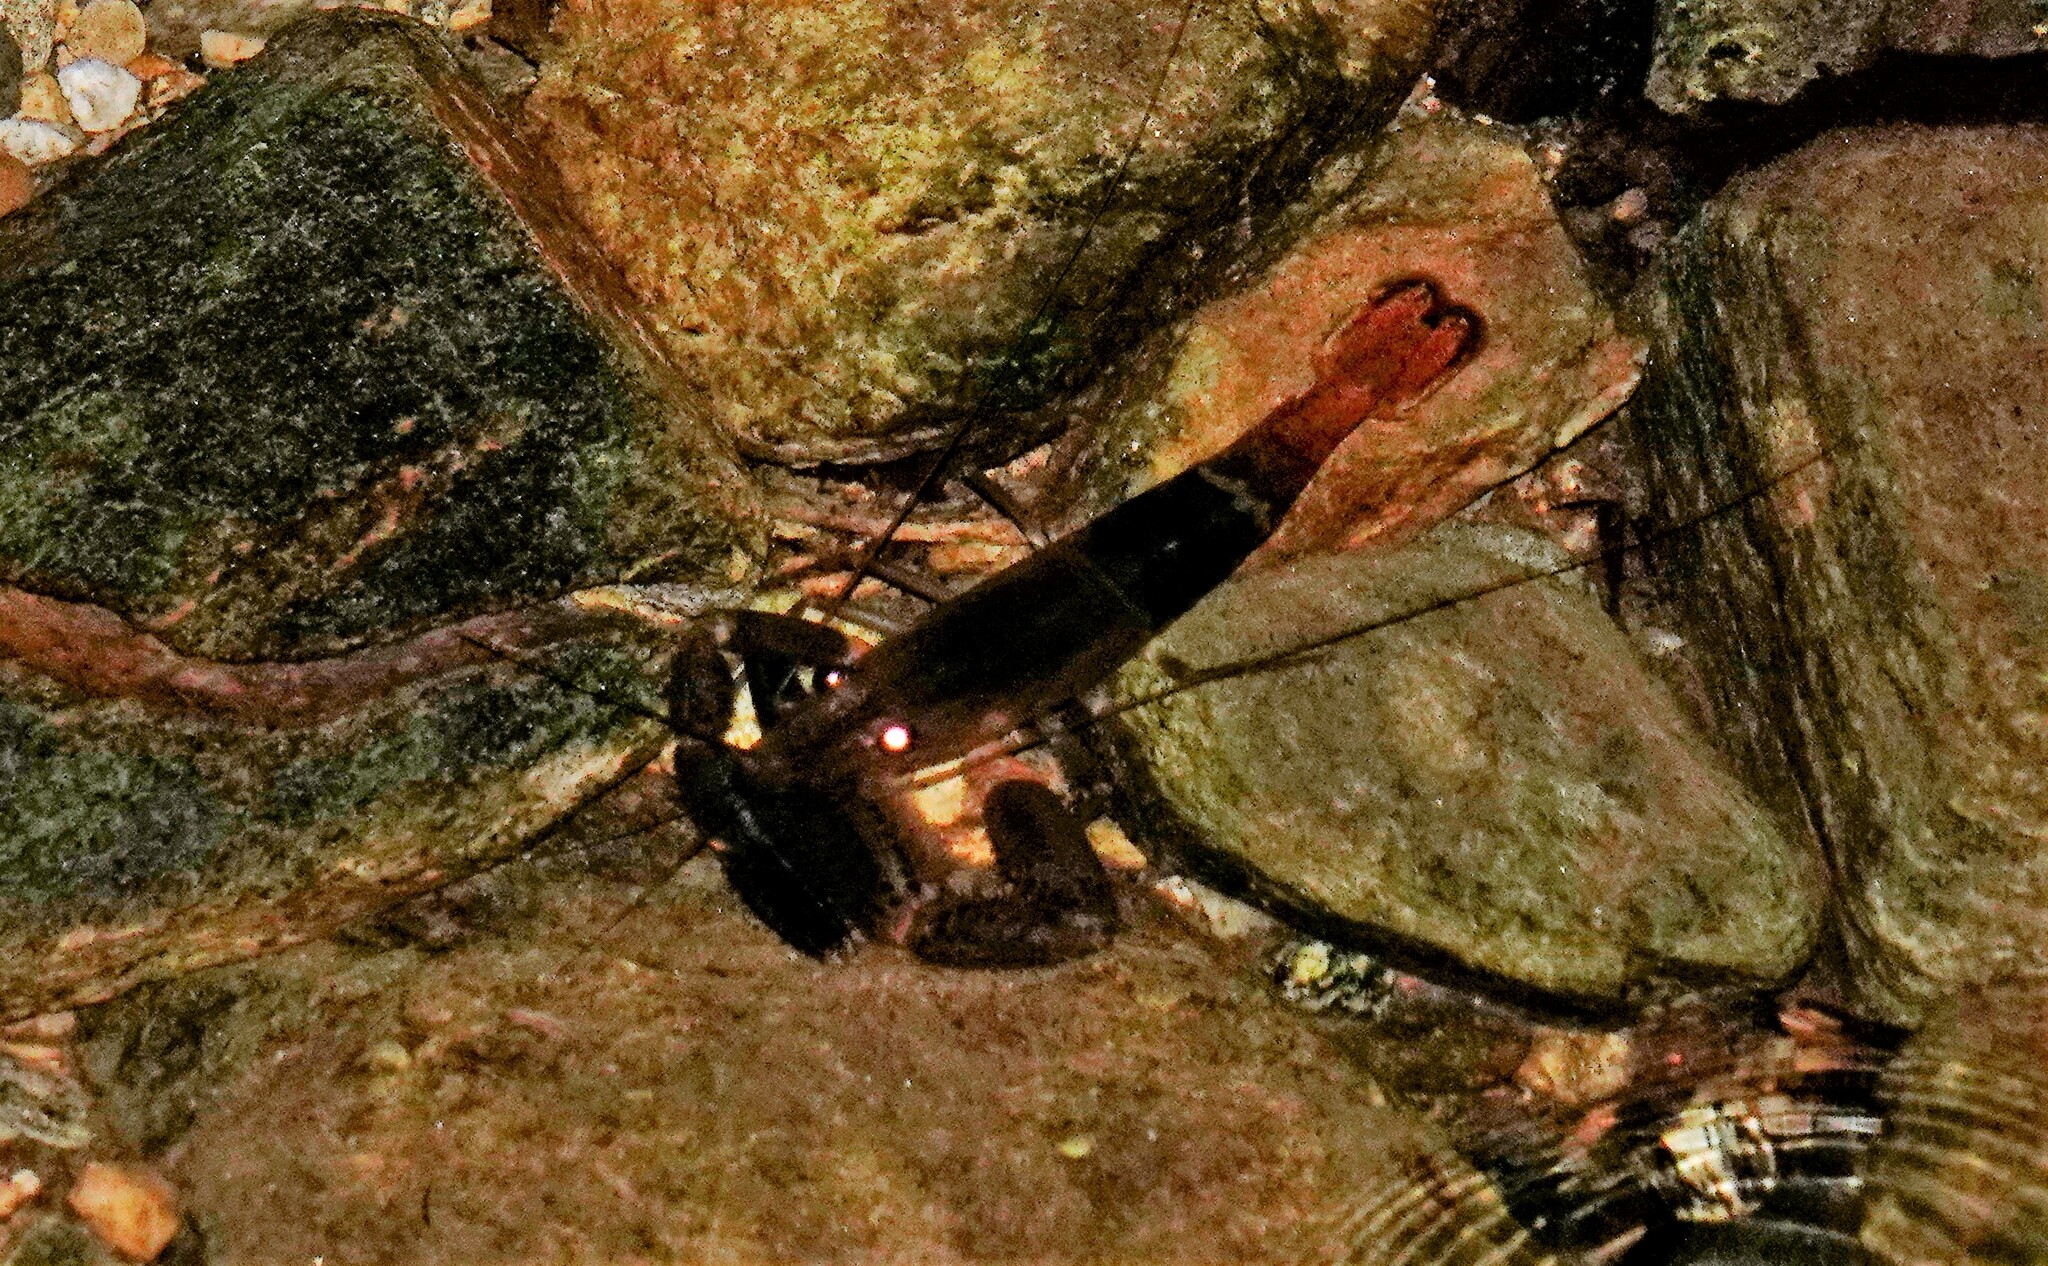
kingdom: Animalia
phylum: Arthropoda
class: Malacostraca
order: Decapoda
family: Palaemonidae
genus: Macrobrachium
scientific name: Macrobrachium crenulatum
